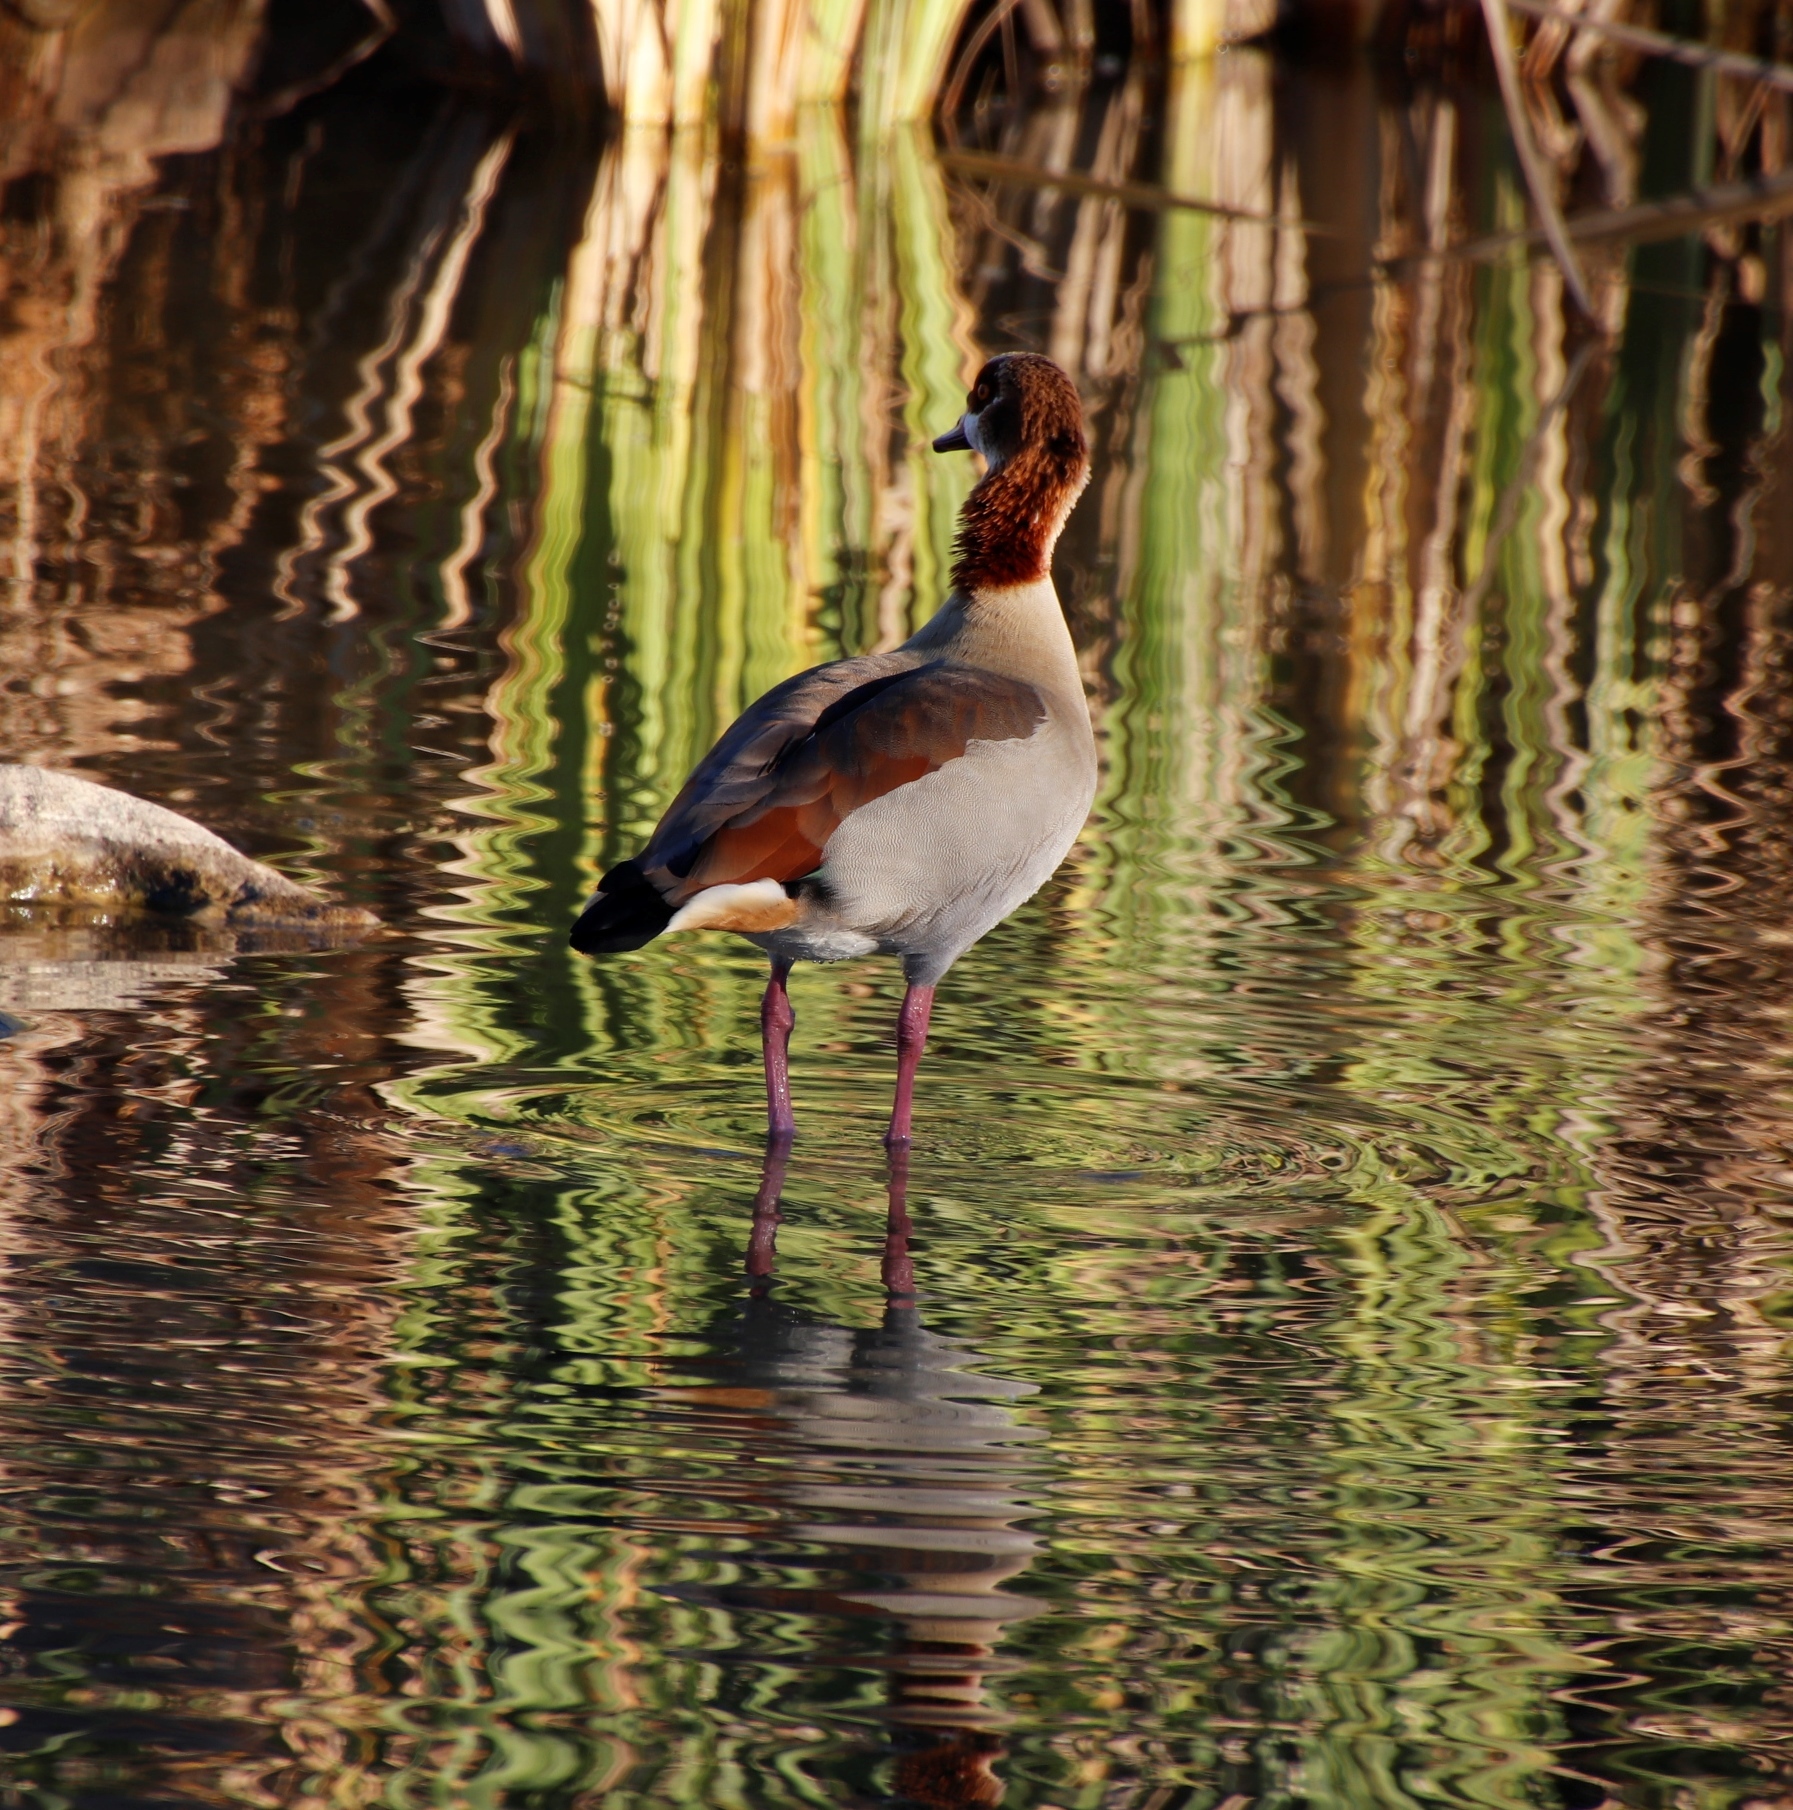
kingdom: Animalia
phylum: Chordata
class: Aves
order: Anseriformes
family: Anatidae
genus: Alopochen
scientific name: Alopochen aegyptiaca
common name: Egyptian goose
